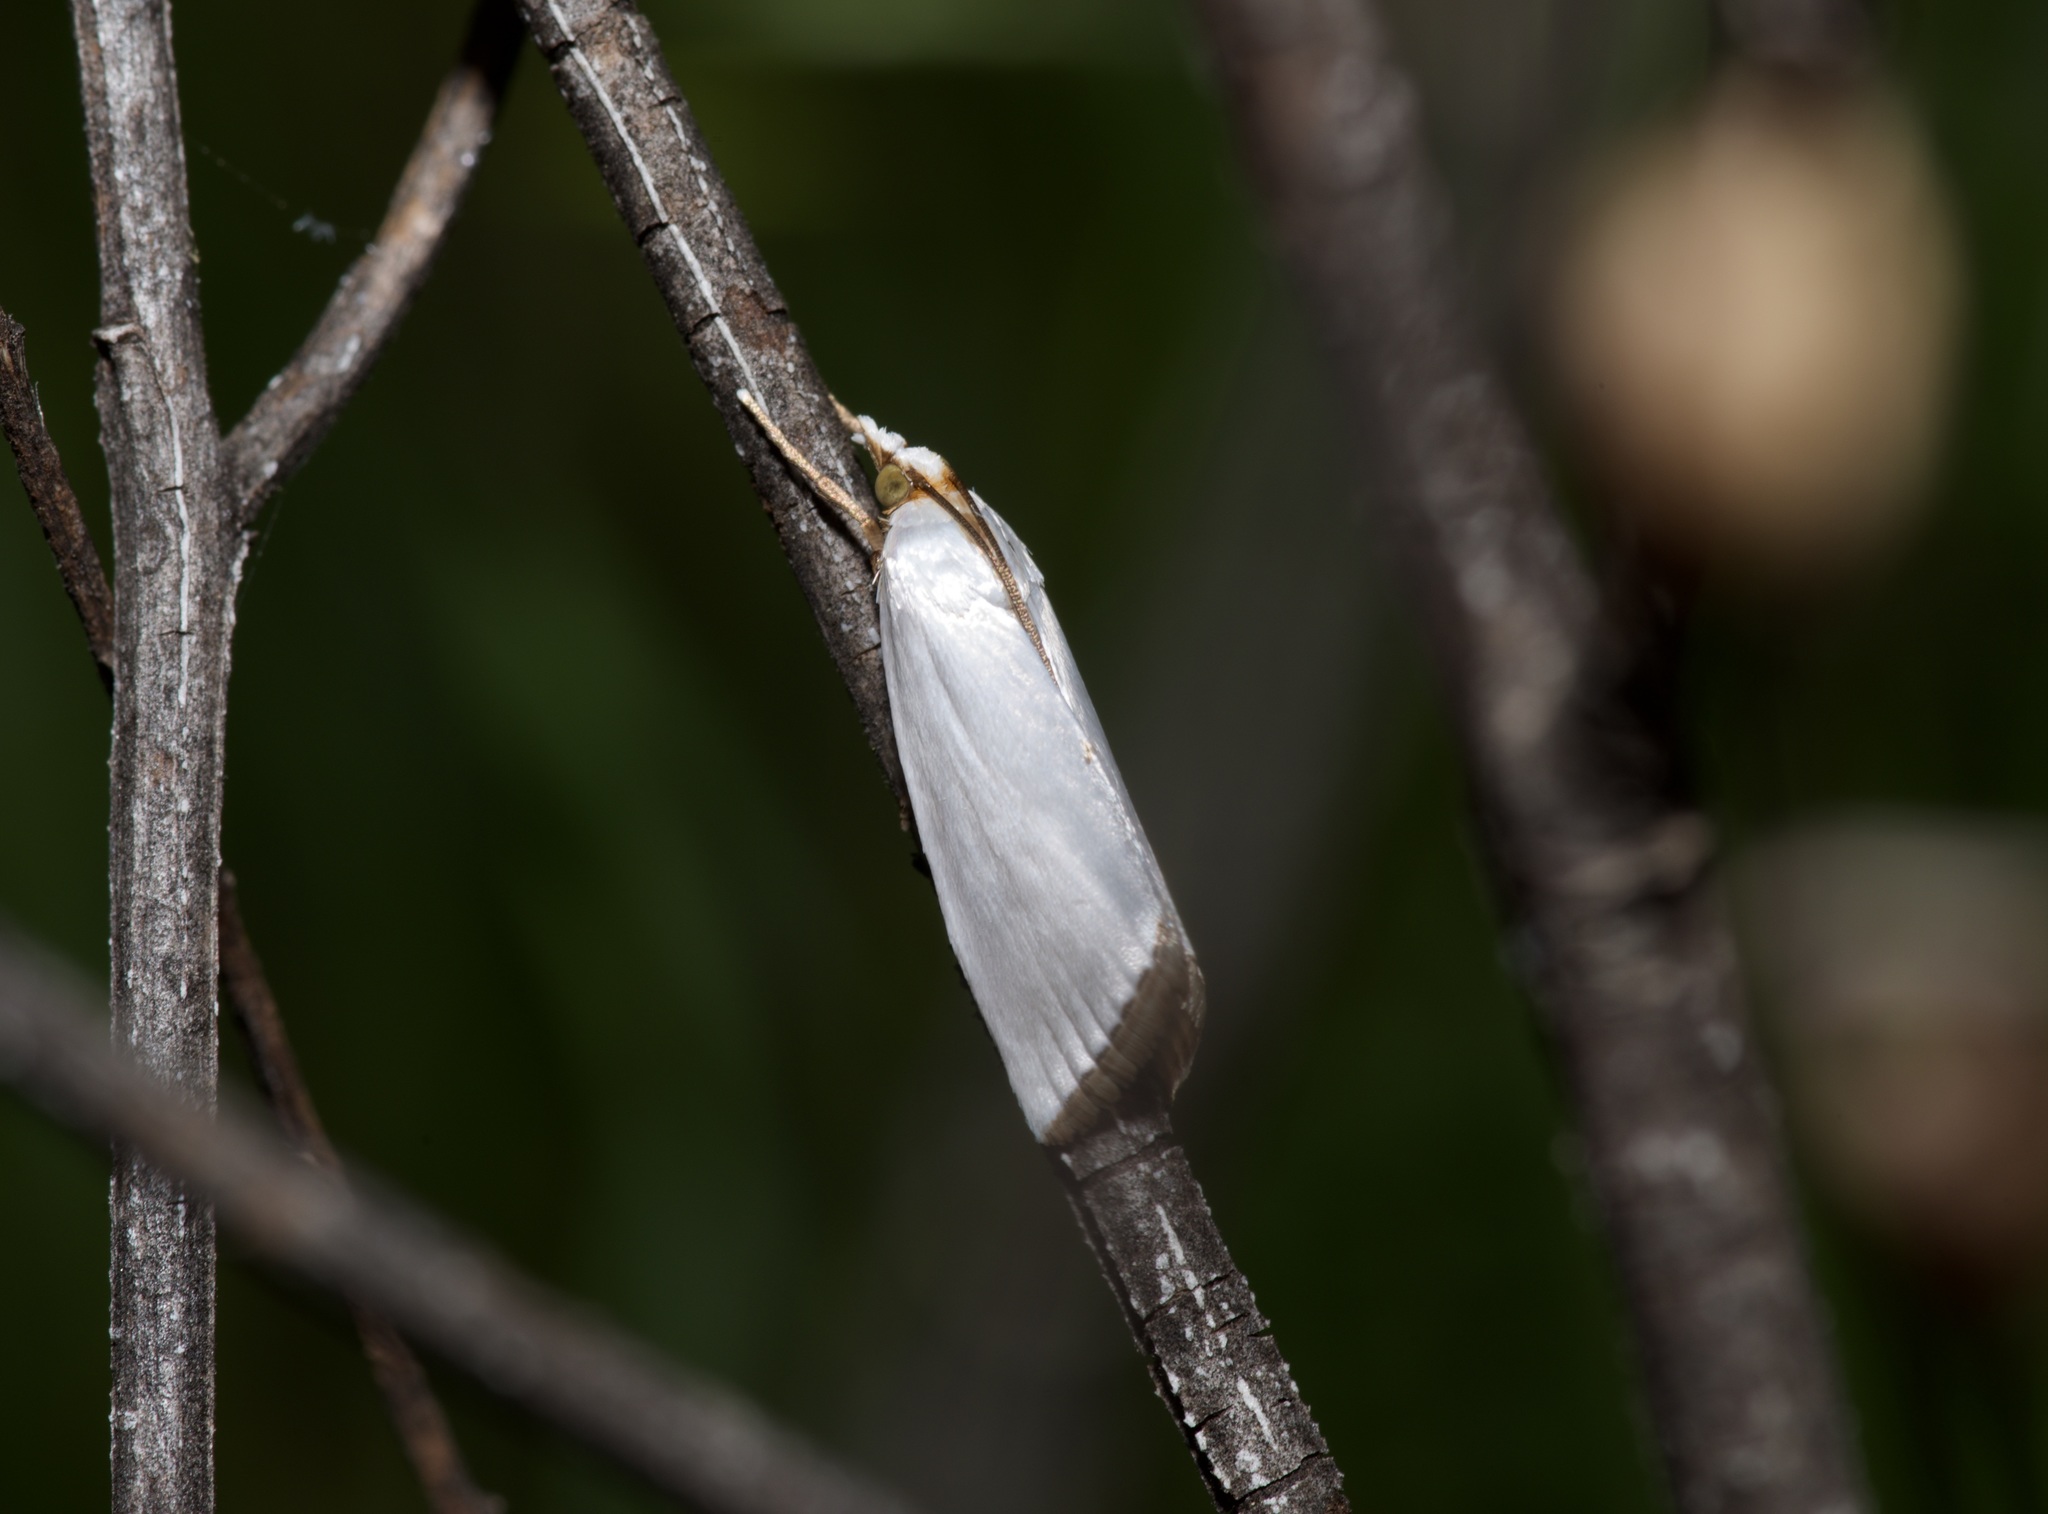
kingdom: Animalia
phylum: Arthropoda
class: Insecta
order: Lepidoptera
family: Crambidae
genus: Argyria
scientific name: Argyria nivalis
